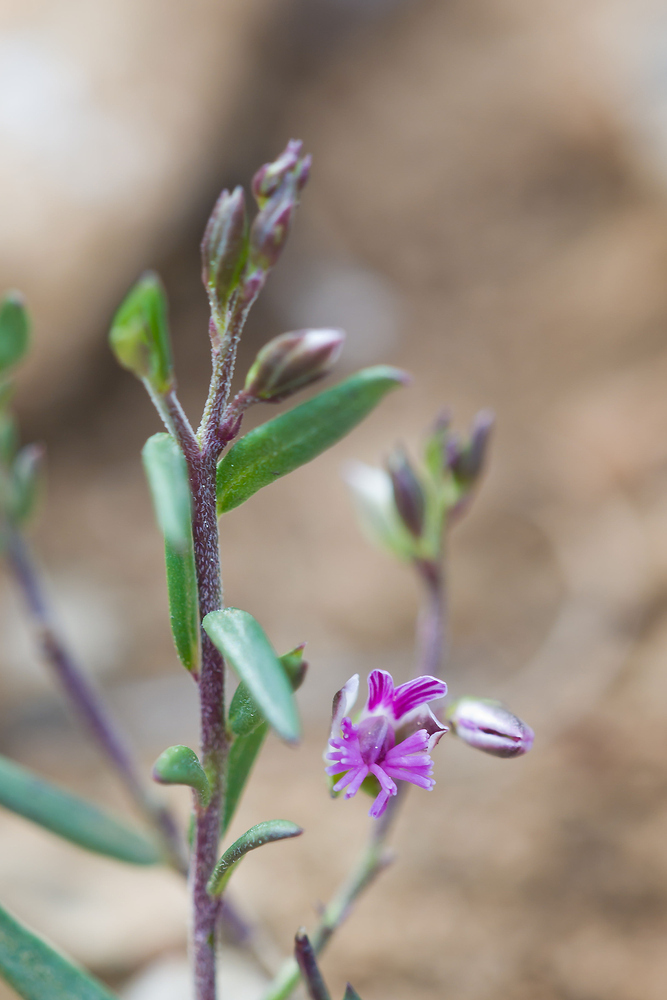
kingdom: Plantae
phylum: Tracheophyta
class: Magnoliopsida
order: Fabales
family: Polygalaceae
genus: Polygala
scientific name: Polygala rupestris
